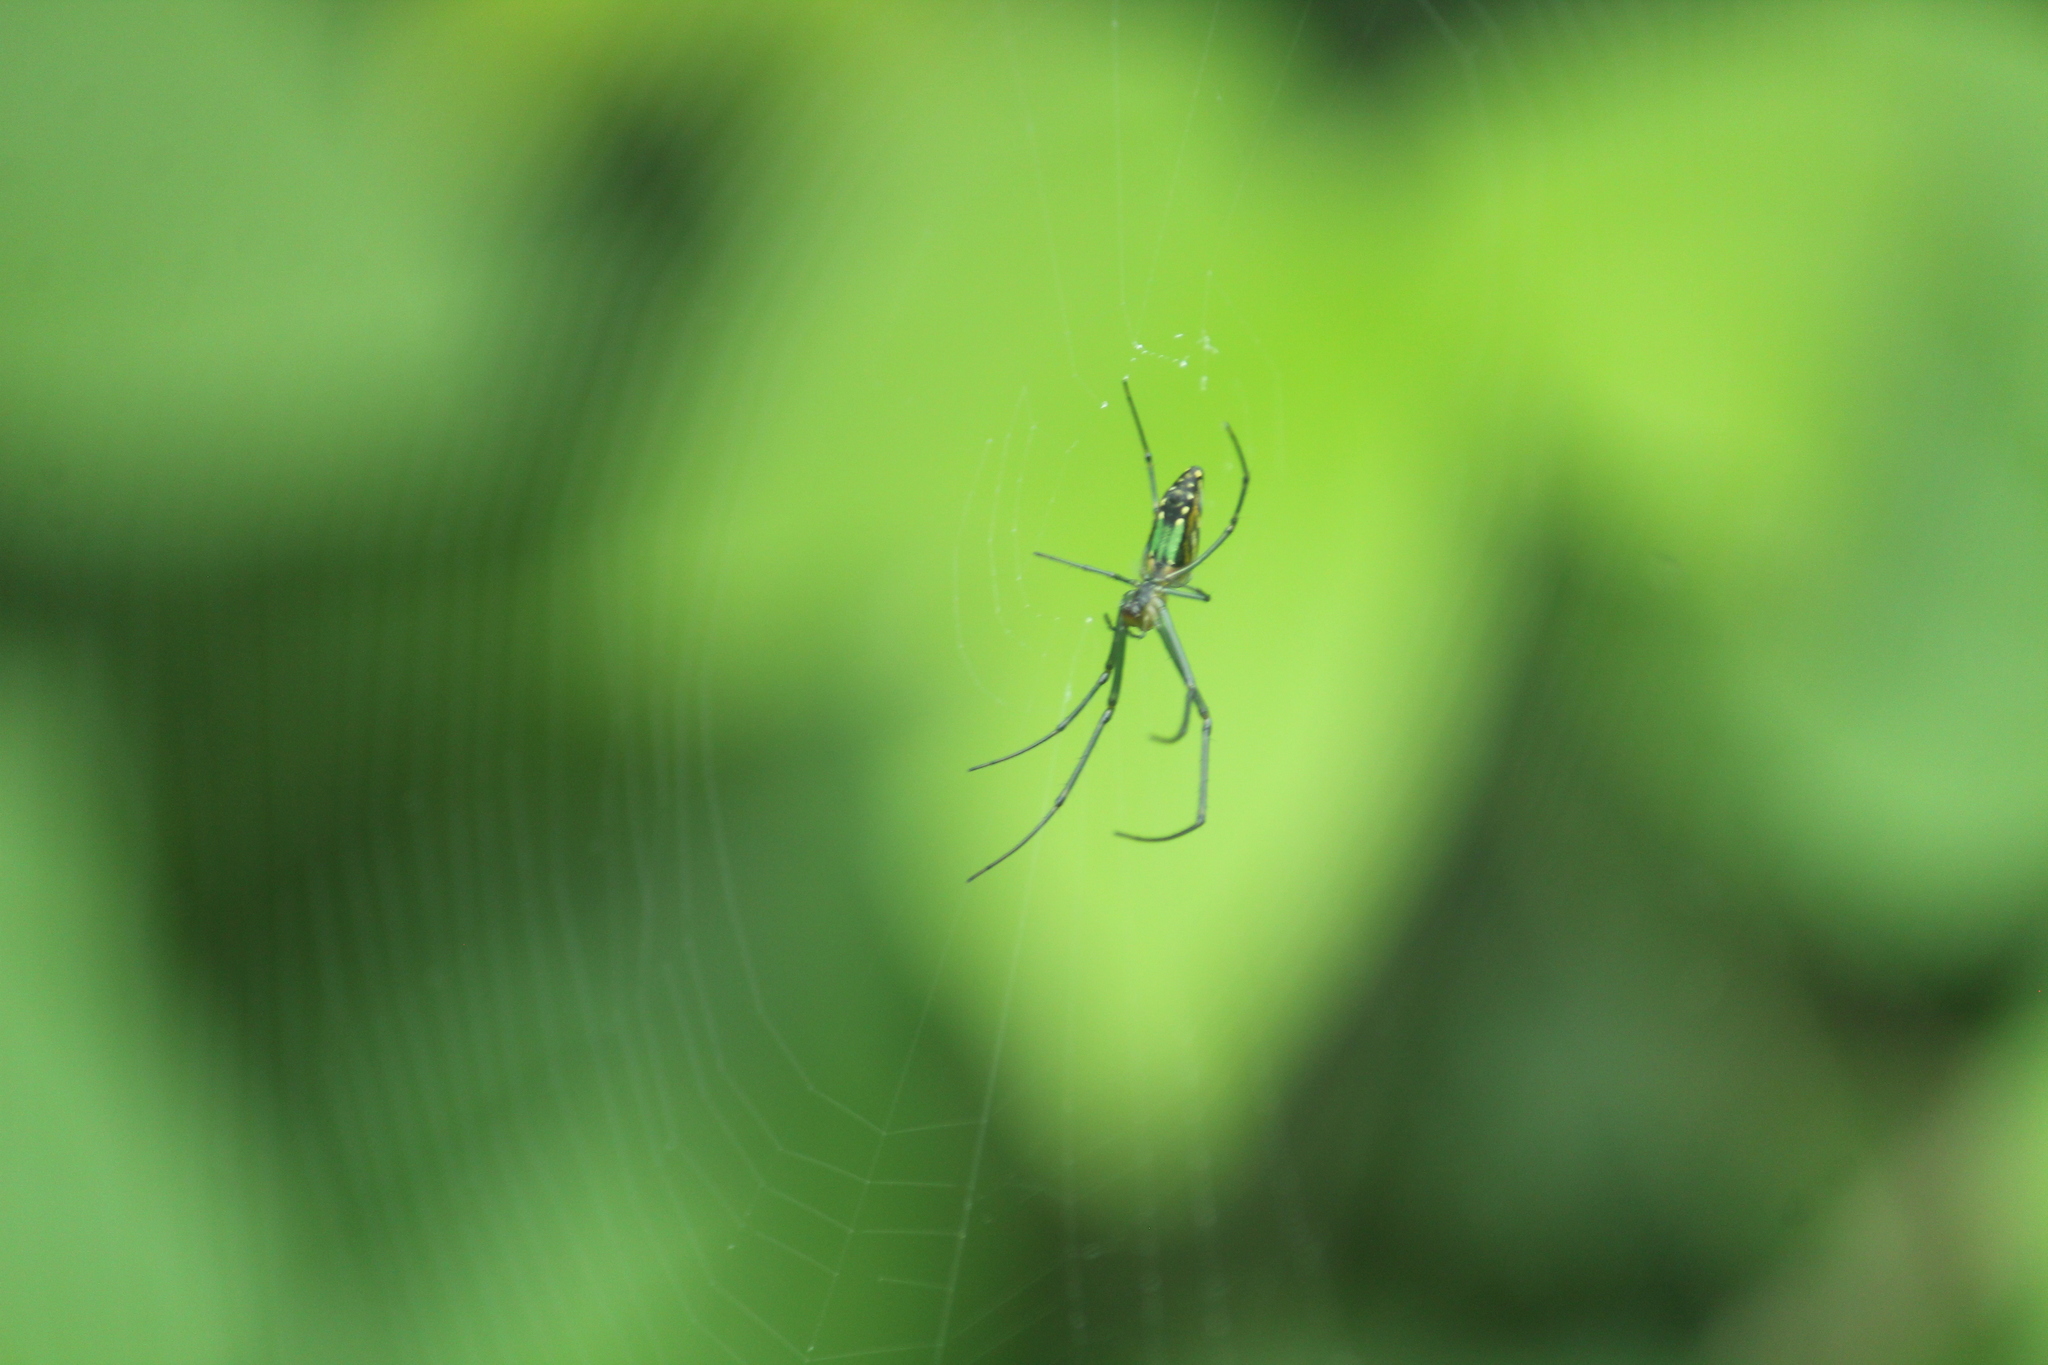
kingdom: Animalia
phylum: Arthropoda
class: Arachnida
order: Araneae
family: Tetragnathidae
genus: Leucauge
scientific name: Leucauge decorata
